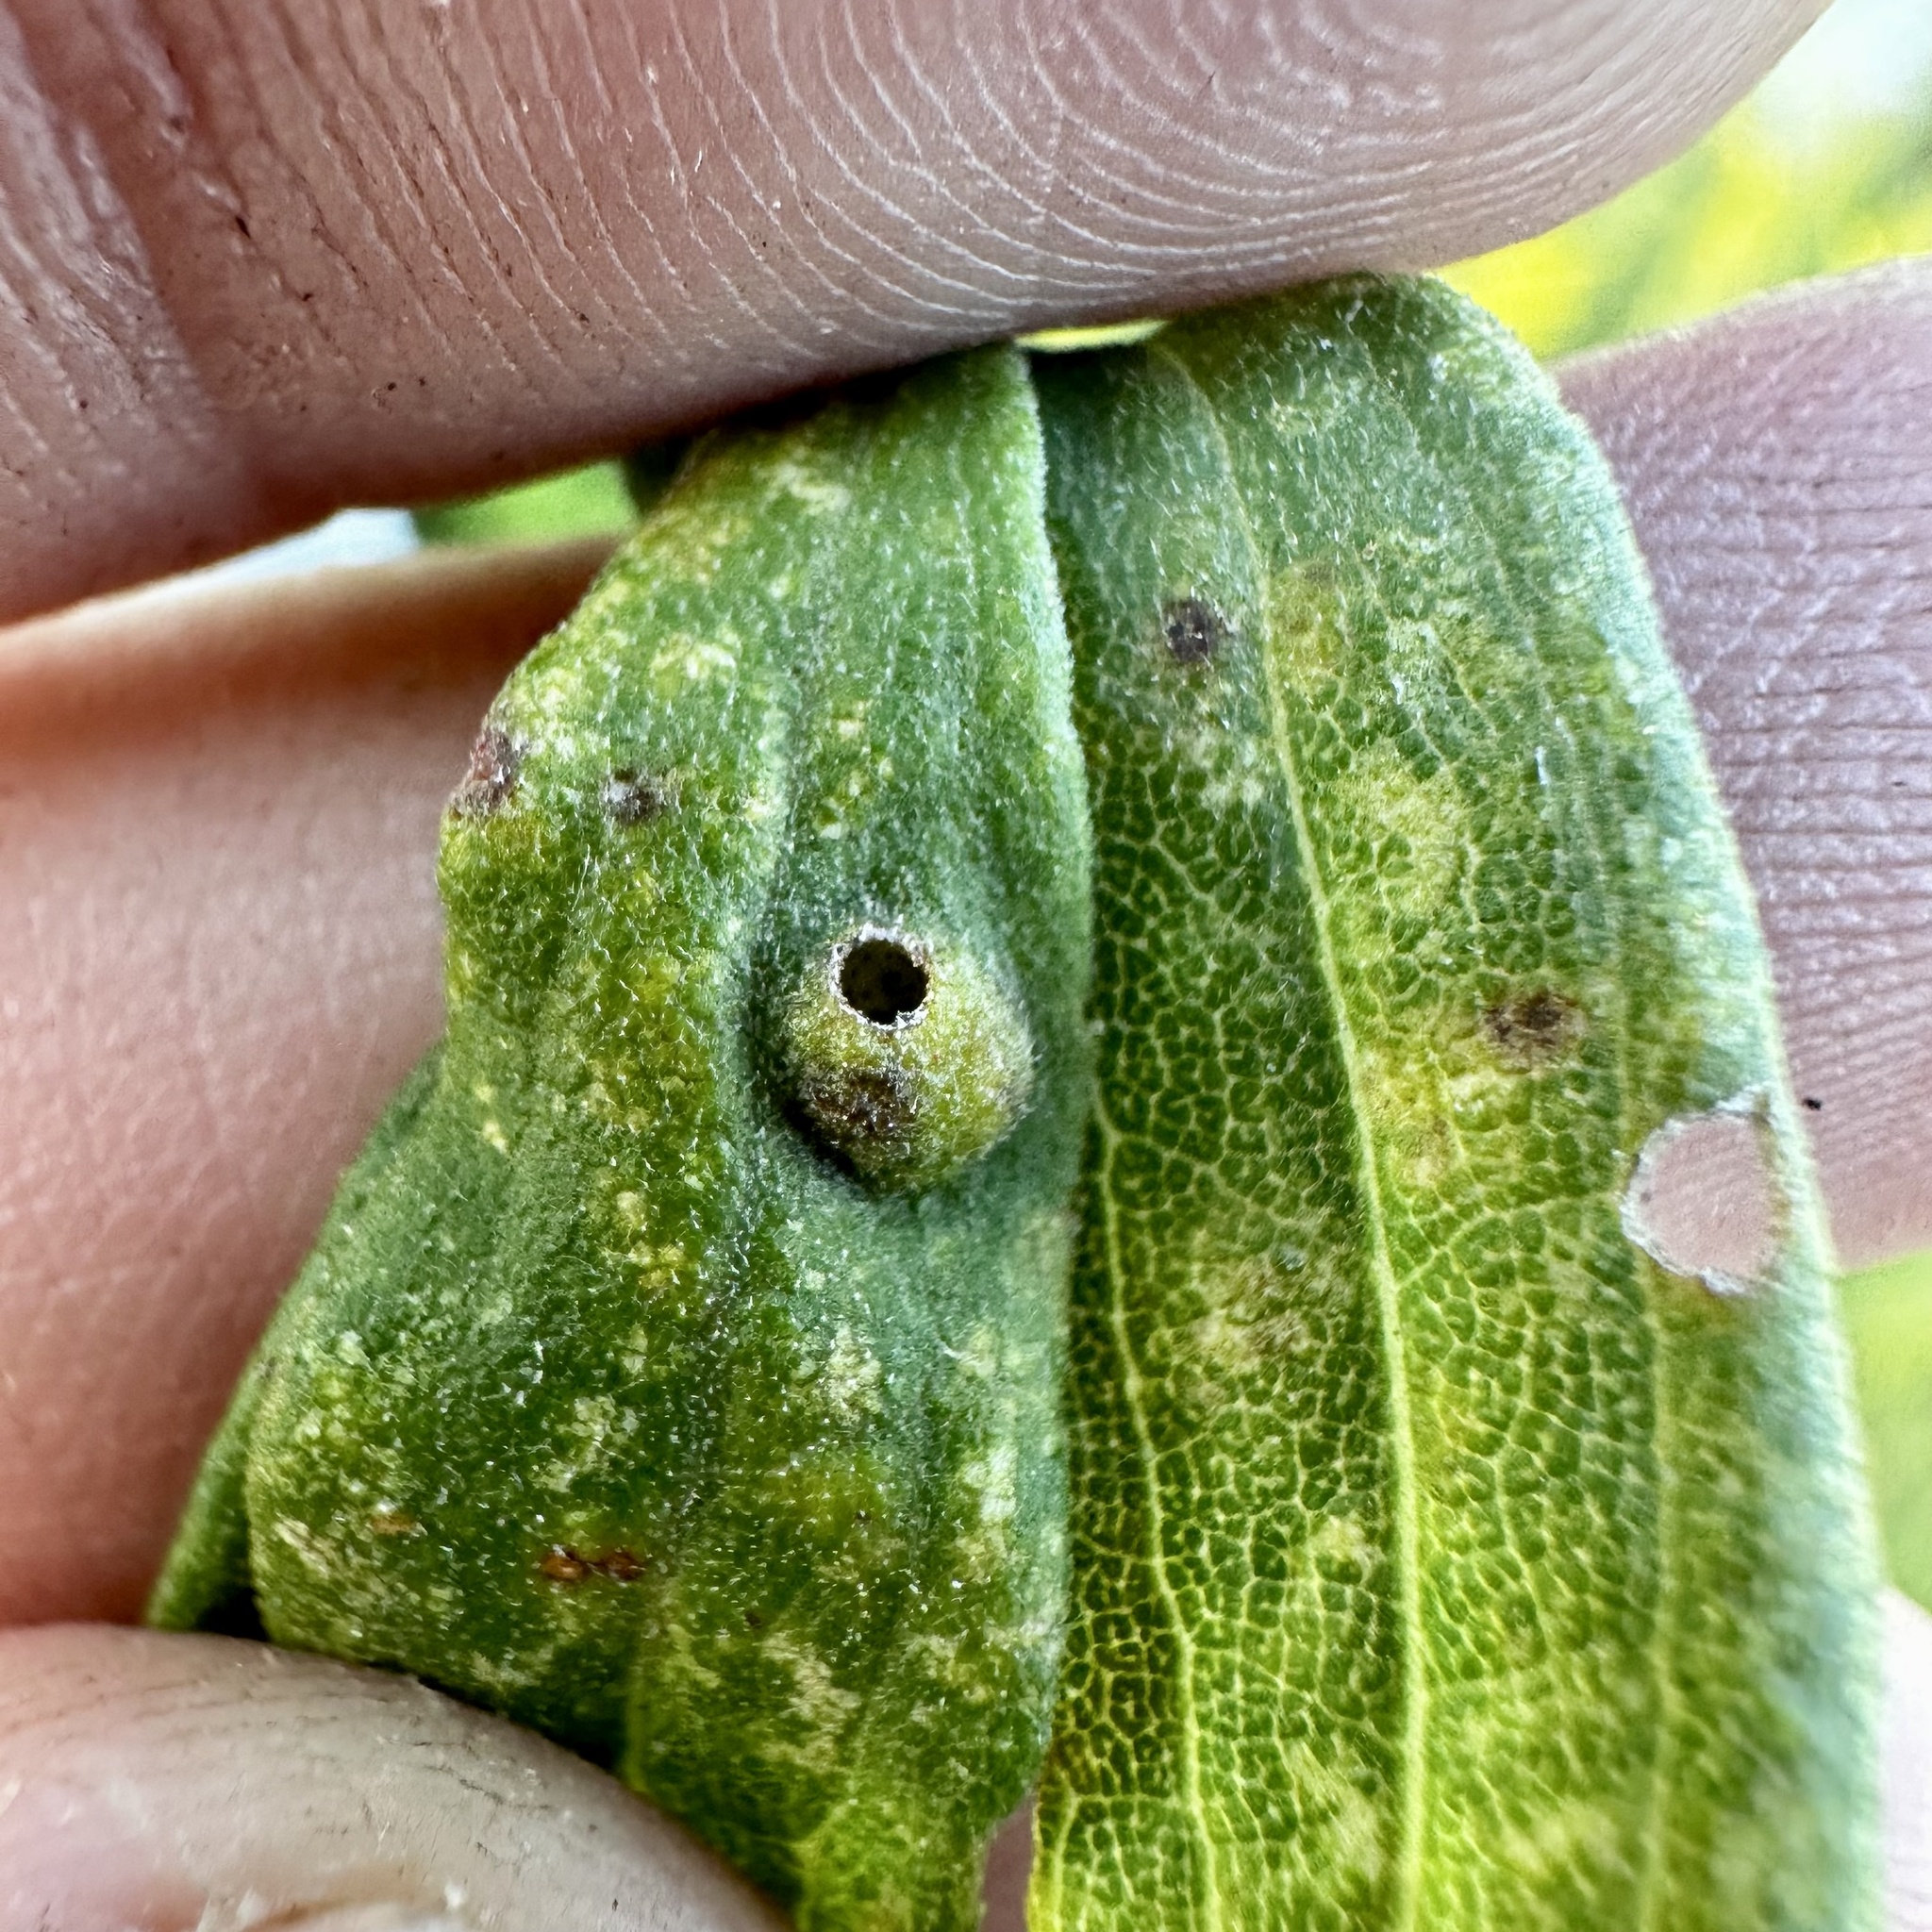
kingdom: Animalia
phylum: Arthropoda
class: Insecta
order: Diptera
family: Cecidomyiidae
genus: Asphondylia
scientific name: Asphondylia solidaginis
